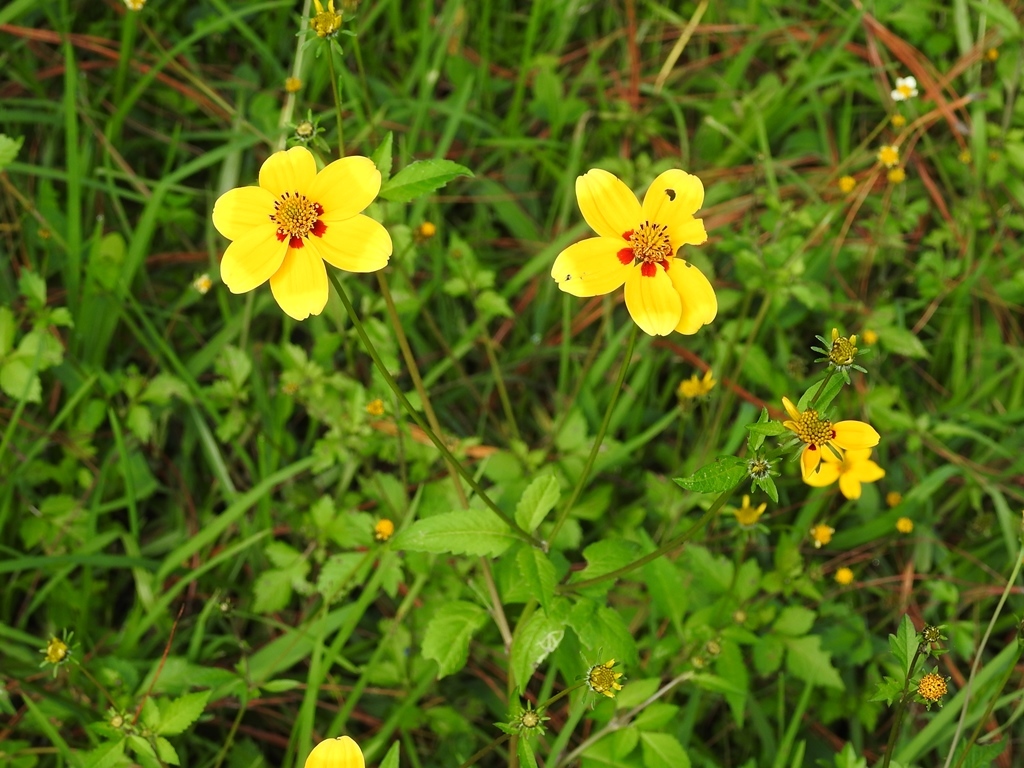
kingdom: Plantae
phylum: Tracheophyta
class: Magnoliopsida
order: Asterales
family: Asteraceae
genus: Bidens
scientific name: Bidens bicolor
